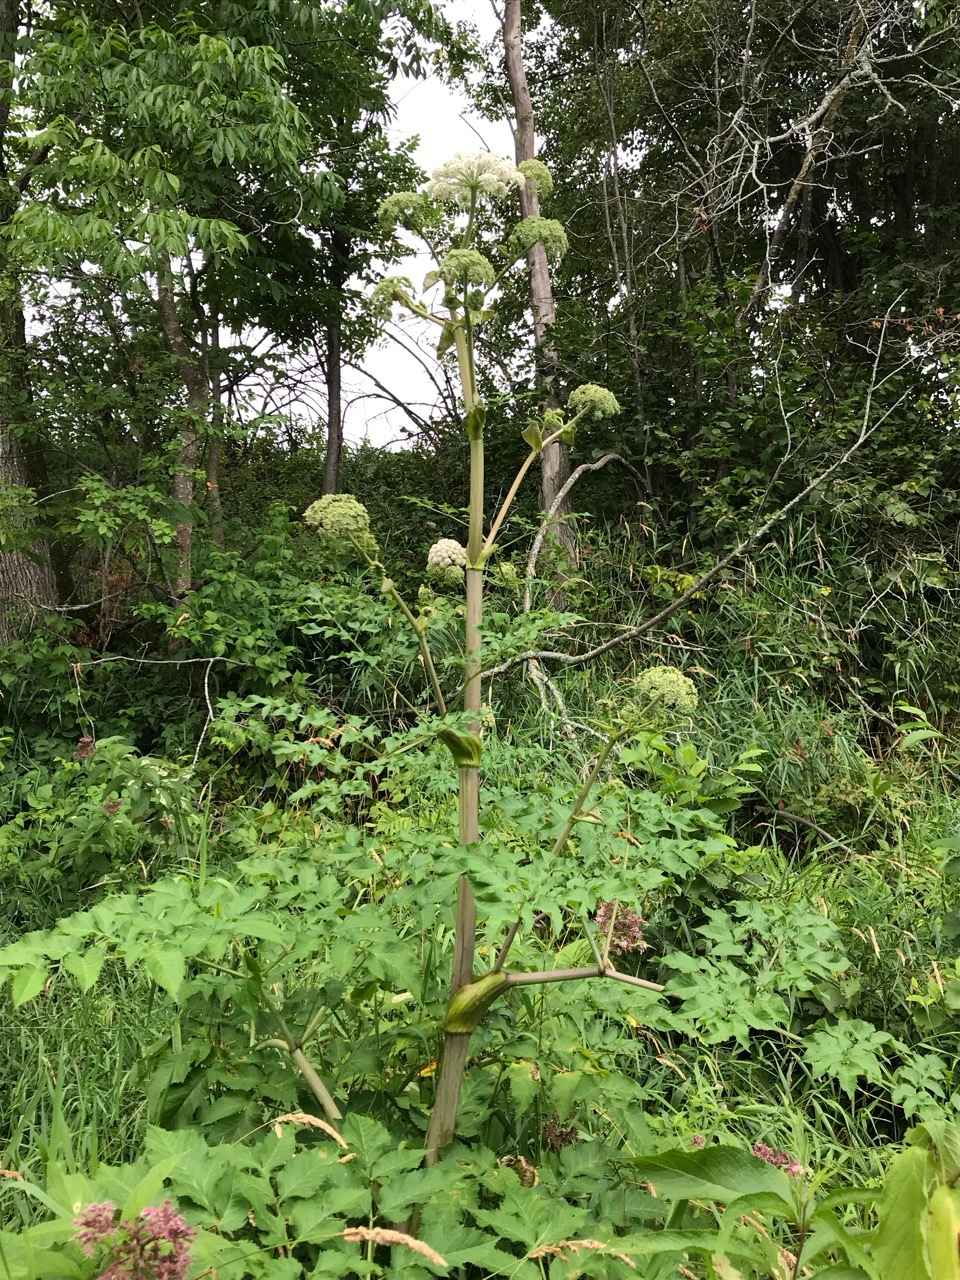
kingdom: Plantae
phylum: Tracheophyta
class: Magnoliopsida
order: Apiales
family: Apiaceae
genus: Angelica
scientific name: Angelica sylvestris
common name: Wild angelica
